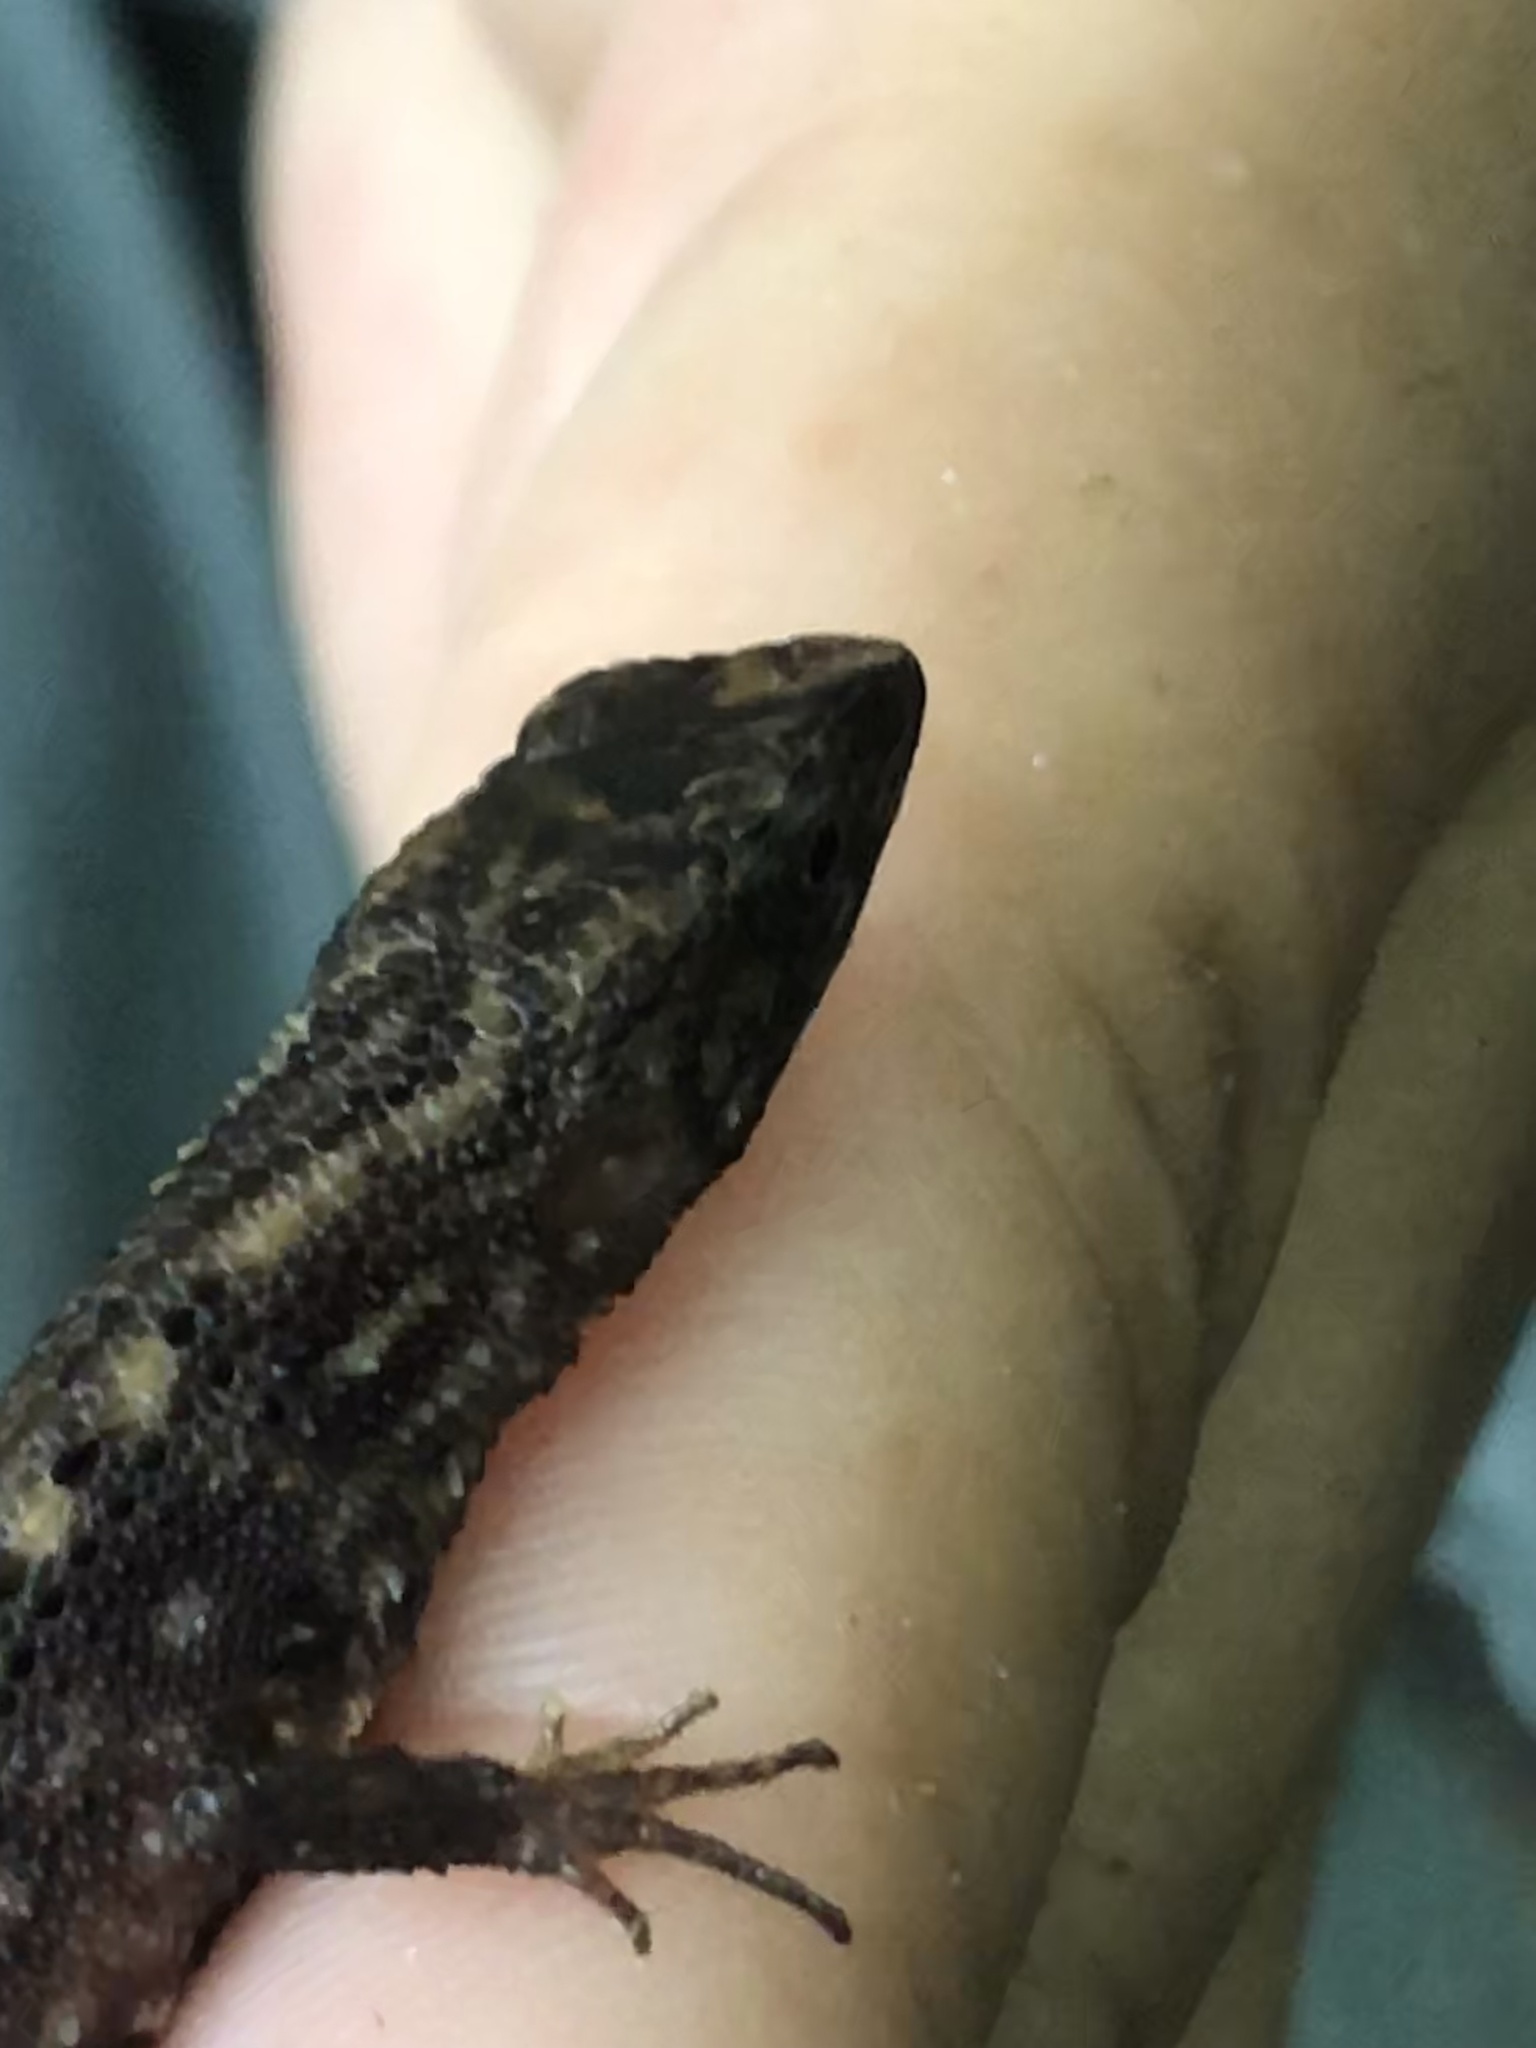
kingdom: Animalia
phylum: Chordata
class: Squamata
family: Gymnophthalmidae
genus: Potamites
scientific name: Potamites erythrocularis
